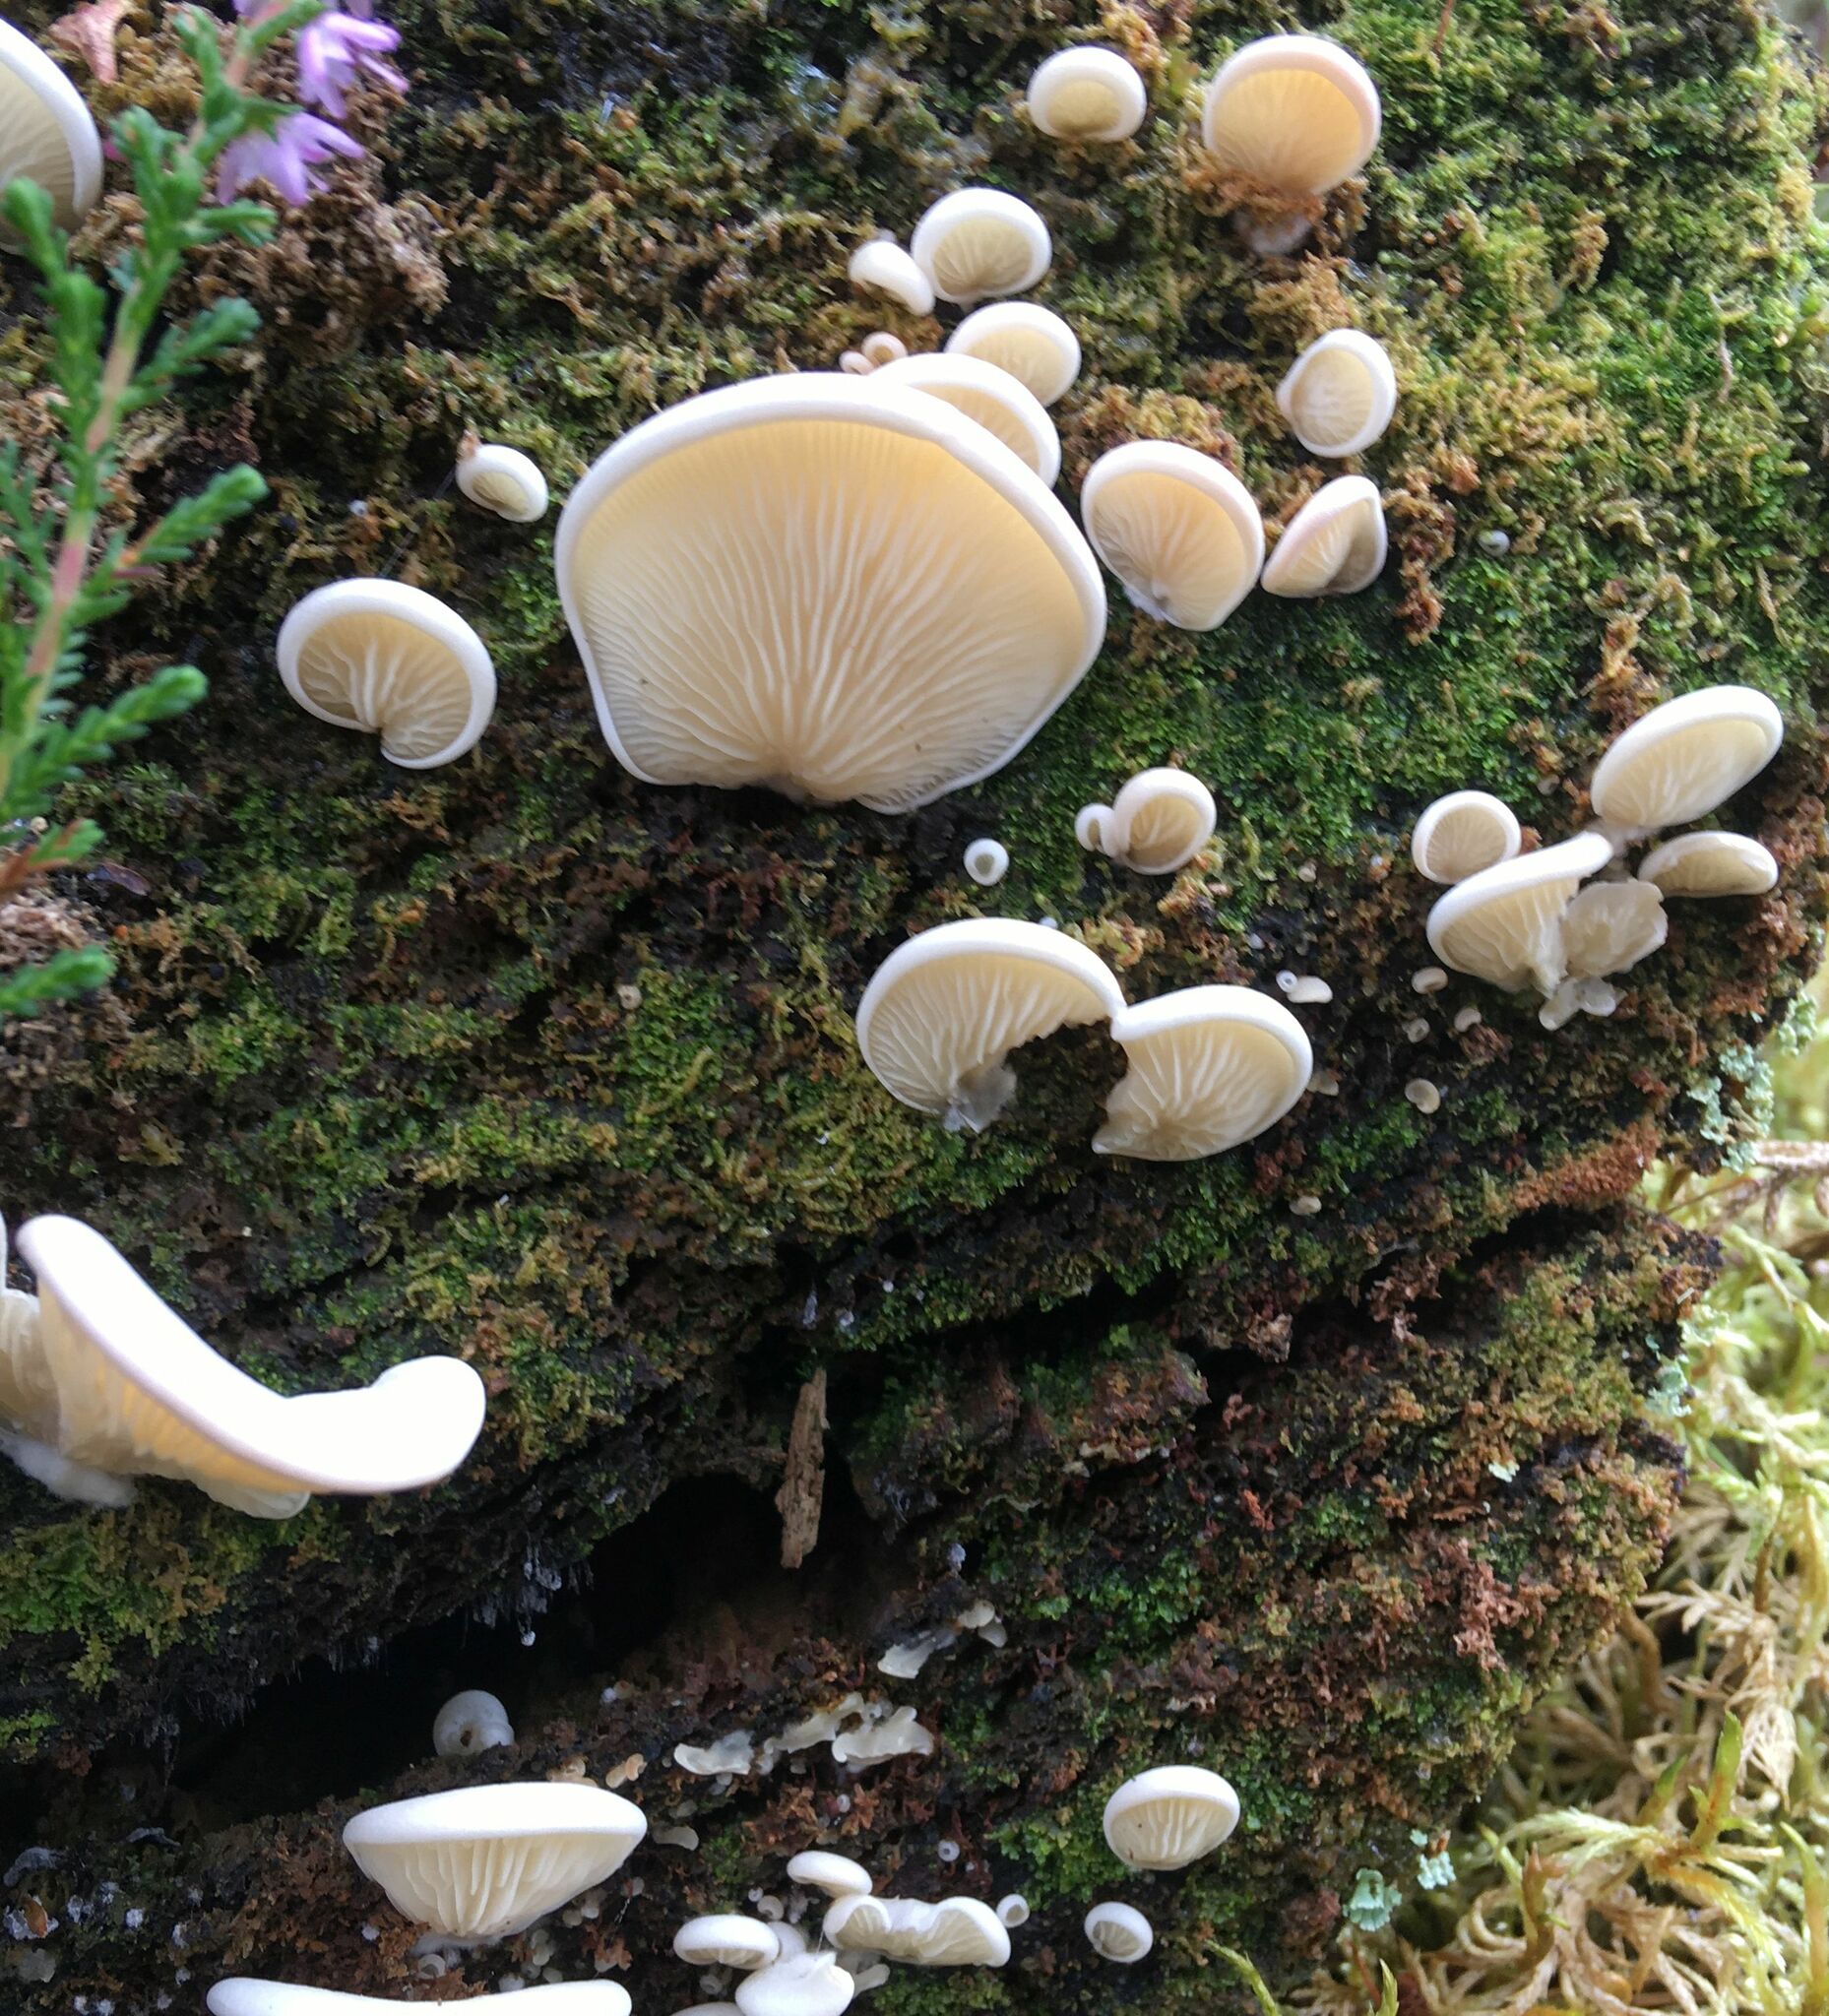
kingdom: Fungi
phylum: Basidiomycota
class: Agaricomycetes
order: Agaricales
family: Marasmiaceae
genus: Pleurocybella
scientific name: Pleurocybella porrigens
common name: Angel's wings
